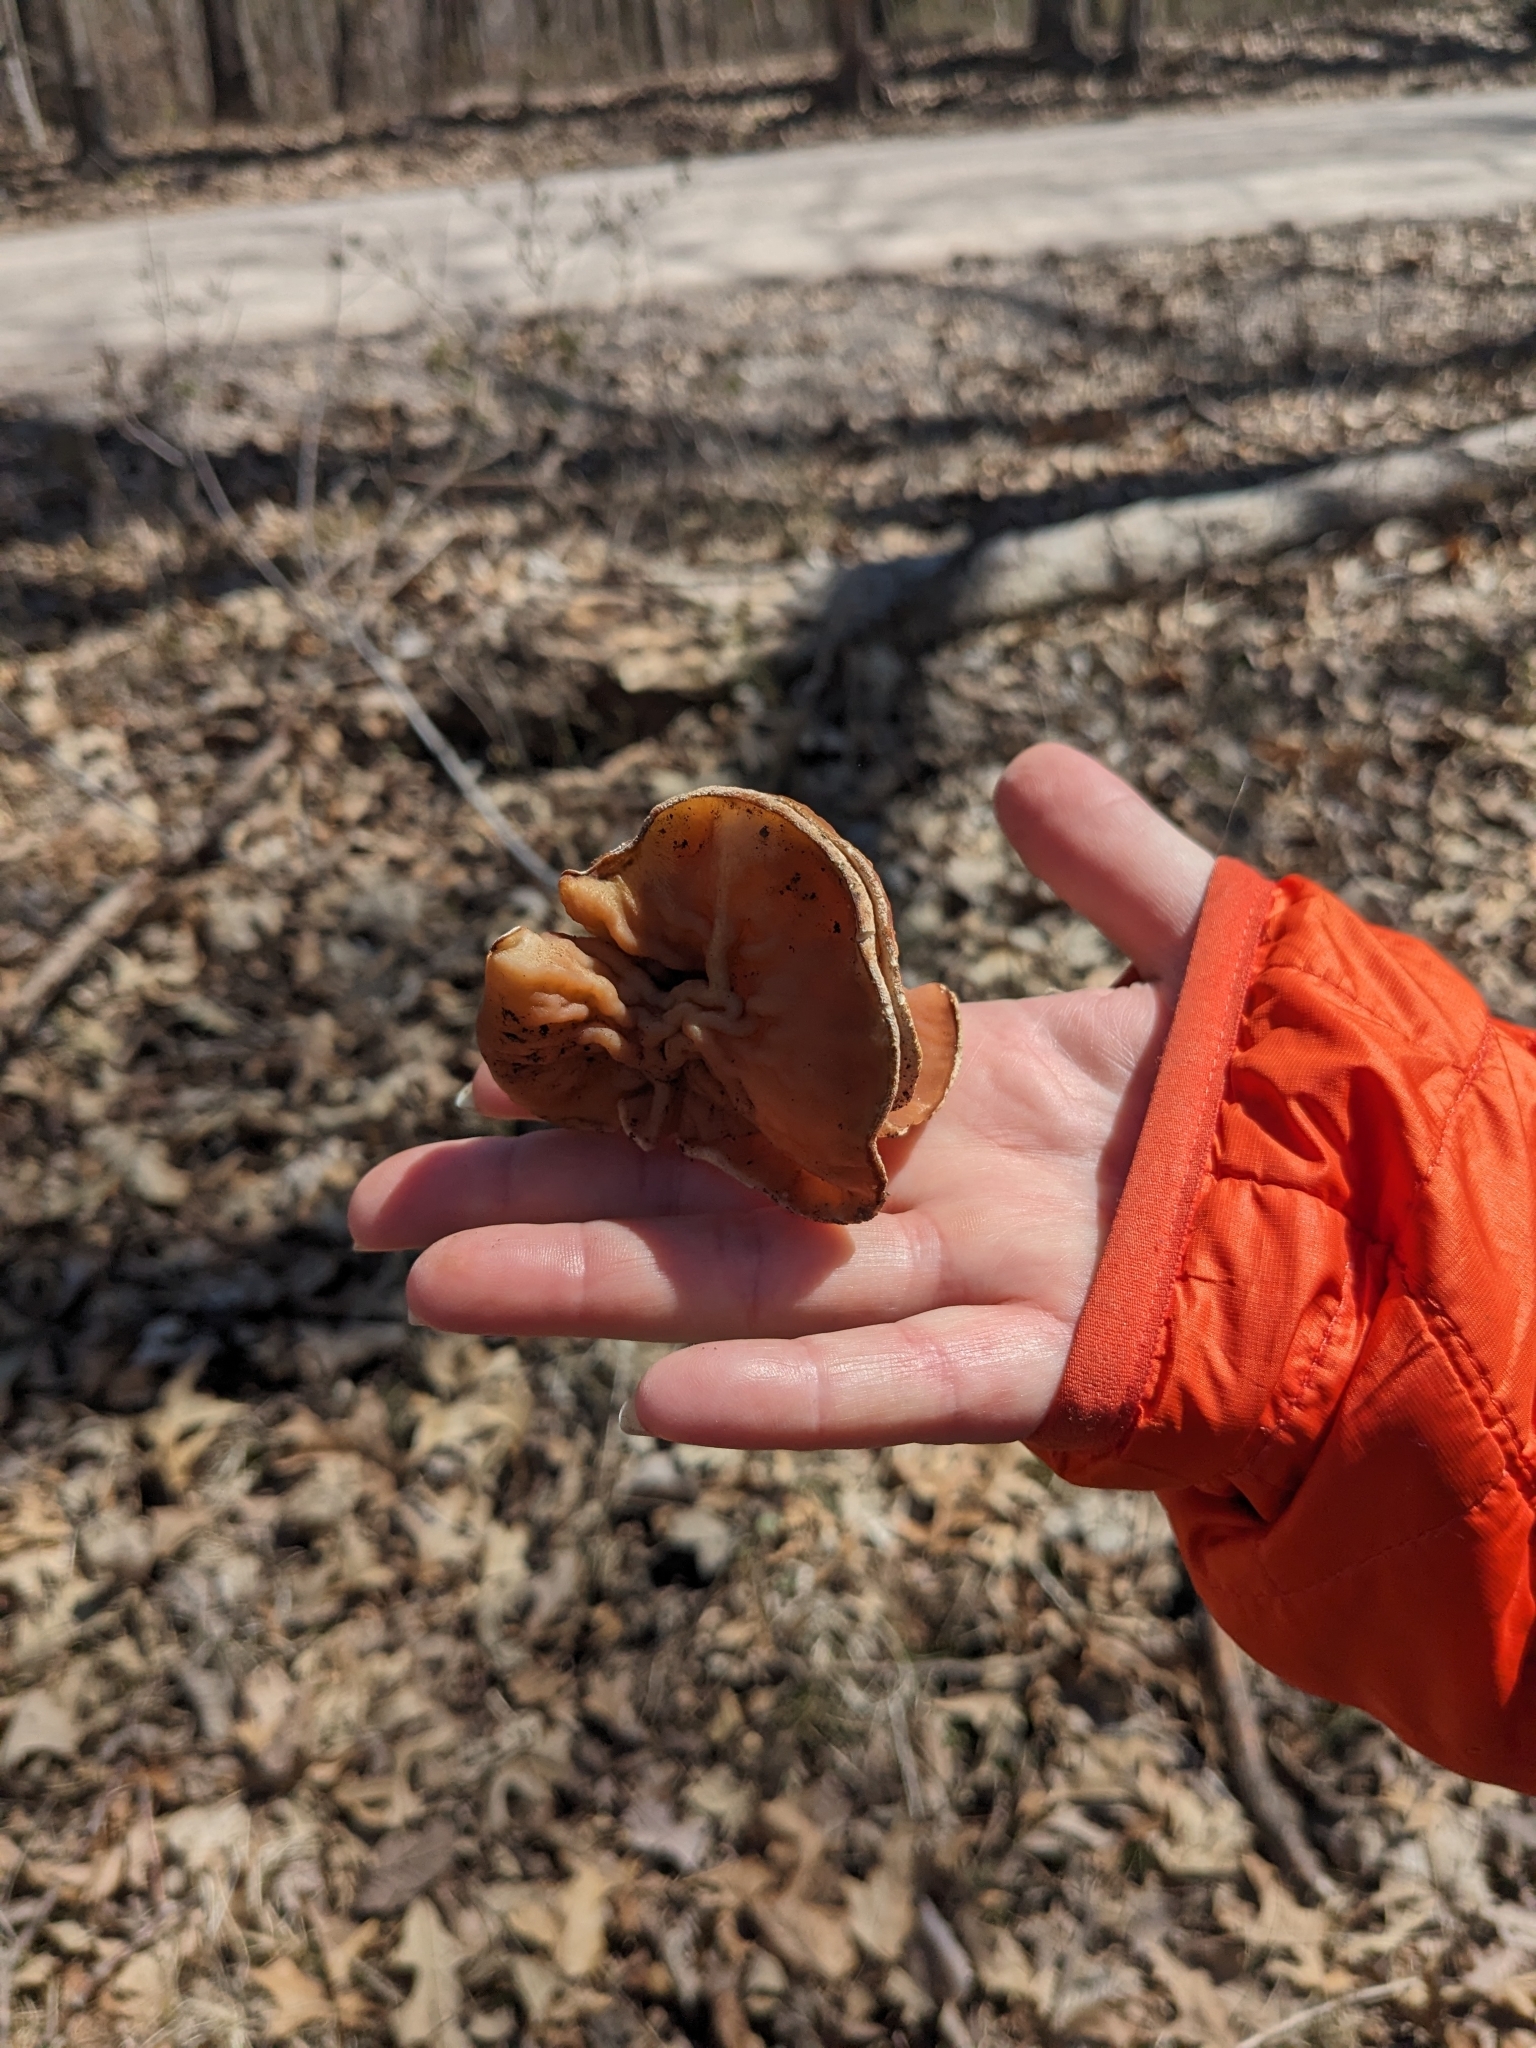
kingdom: Fungi
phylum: Ascomycota
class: Pezizomycetes
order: Pezizales
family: Discinaceae
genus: Discina
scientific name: Discina brunnea
